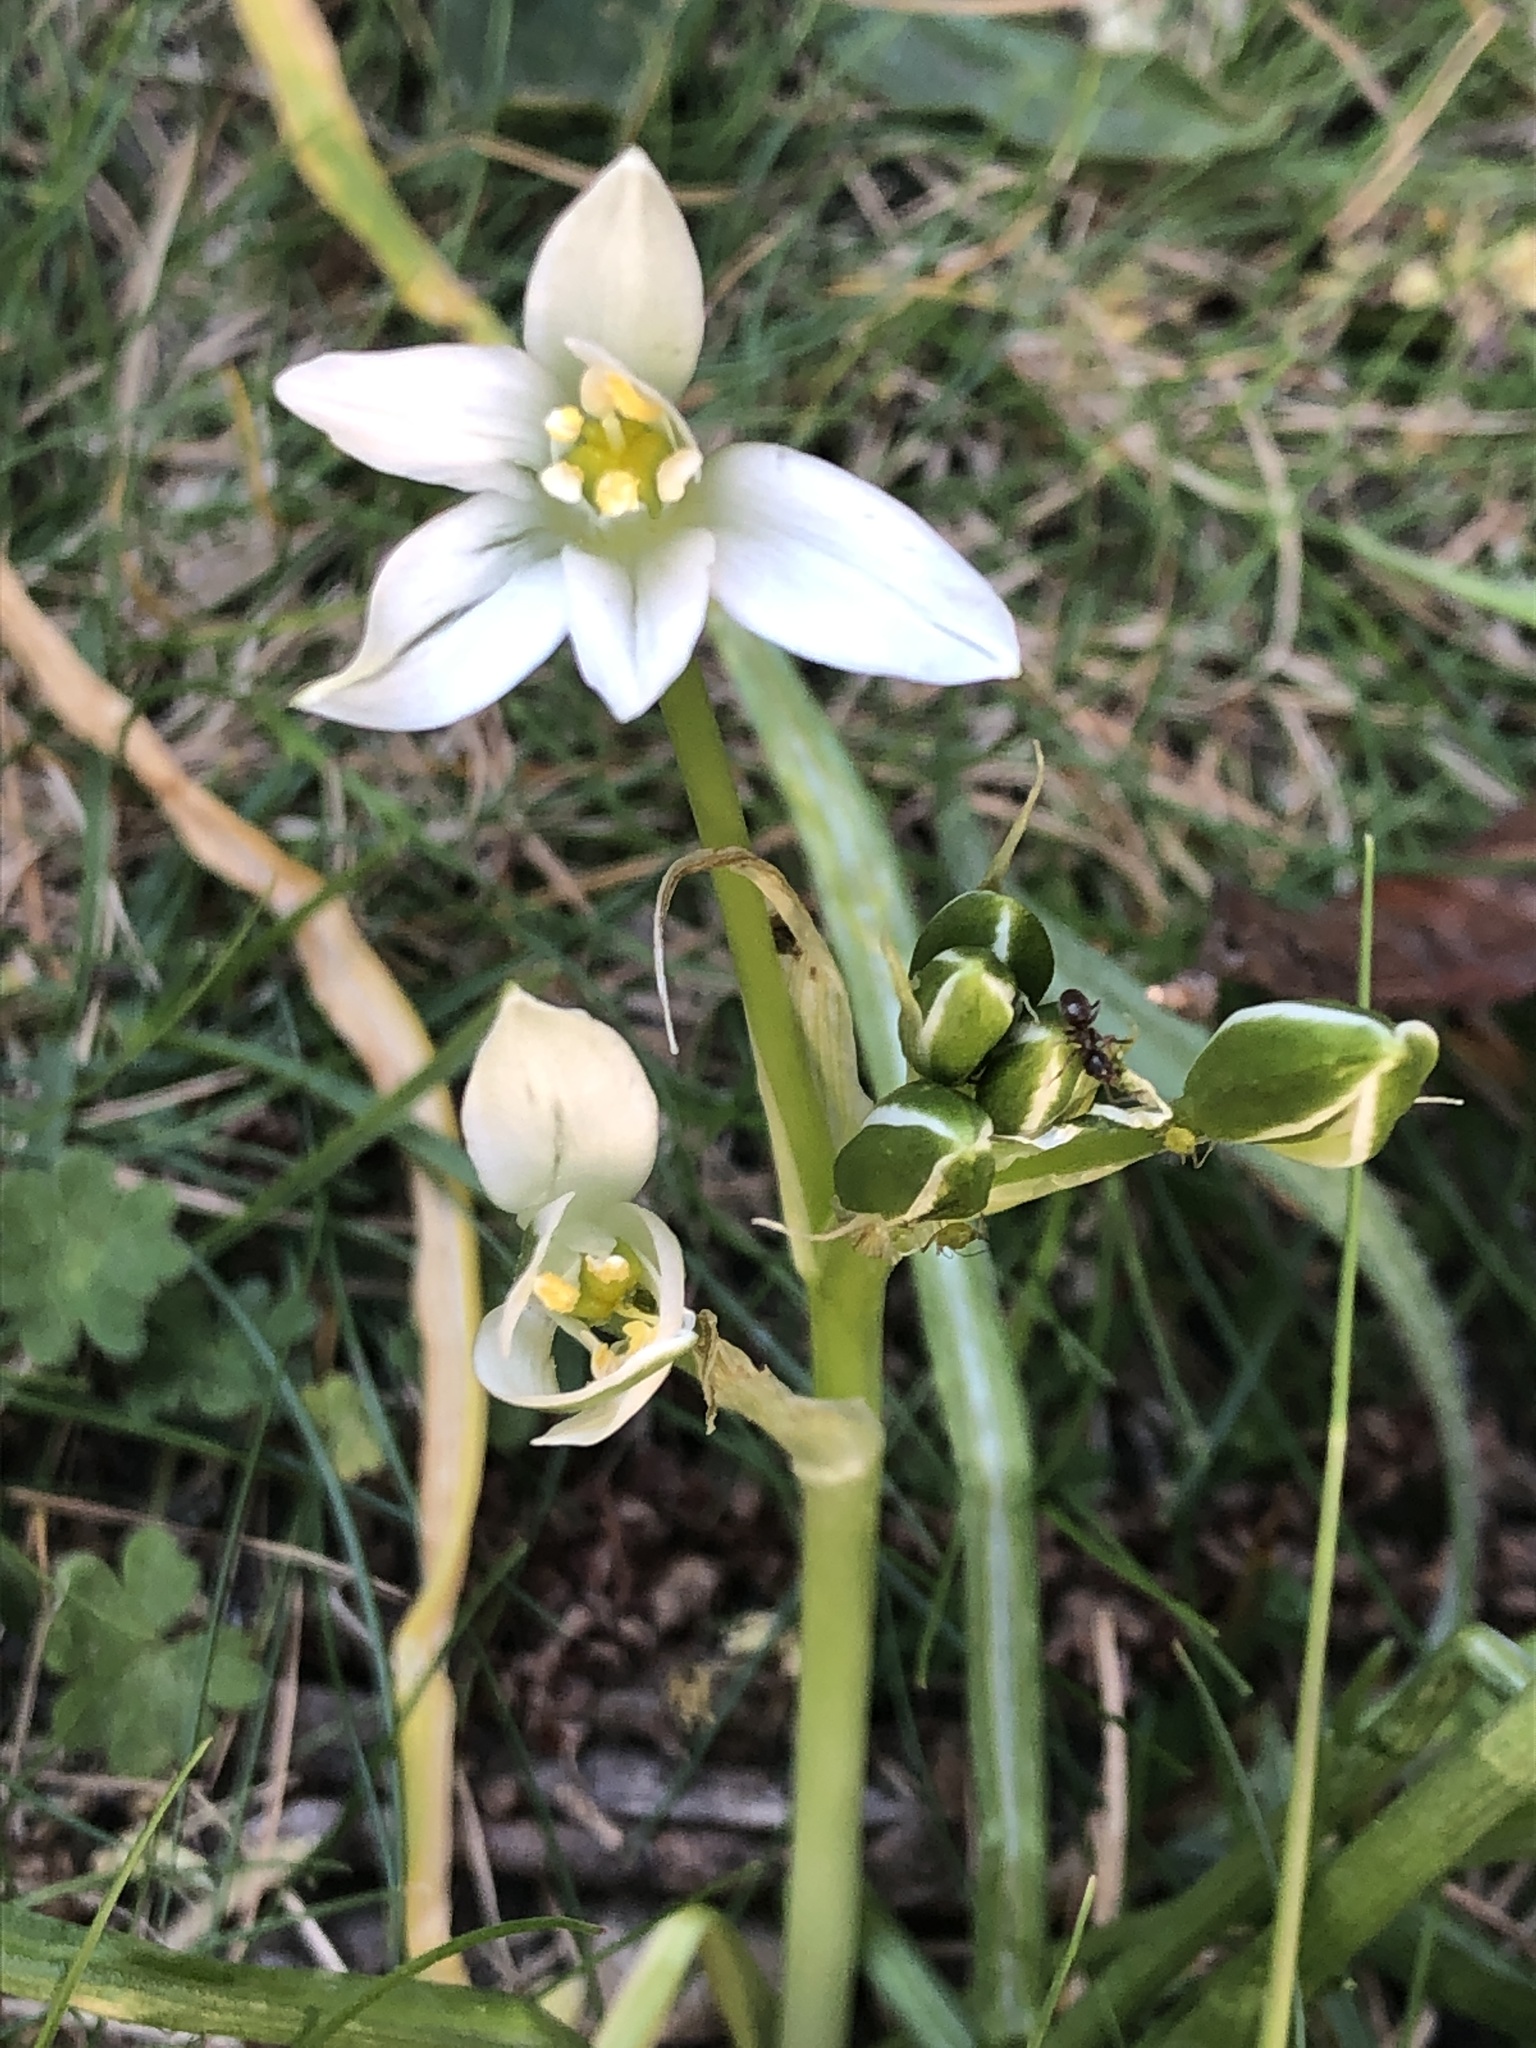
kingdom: Plantae
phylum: Tracheophyta
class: Liliopsida
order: Asparagales
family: Asparagaceae
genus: Ornithogalum
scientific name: Ornithogalum umbellatum
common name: Garden star-of-bethlehem
